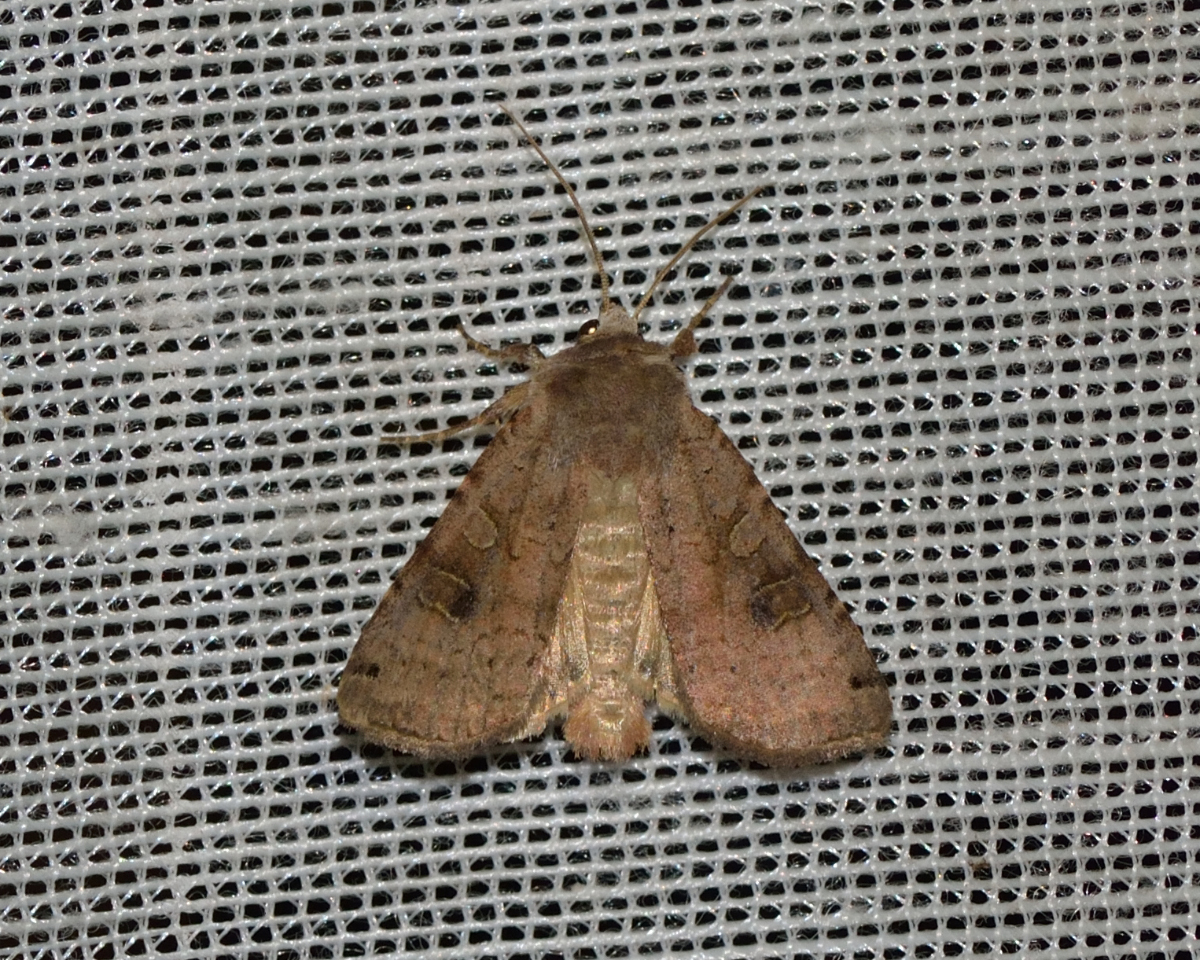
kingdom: Animalia
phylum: Arthropoda
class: Insecta
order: Lepidoptera
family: Noctuidae
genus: Xestia
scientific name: Xestia baja
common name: Dotted clay
